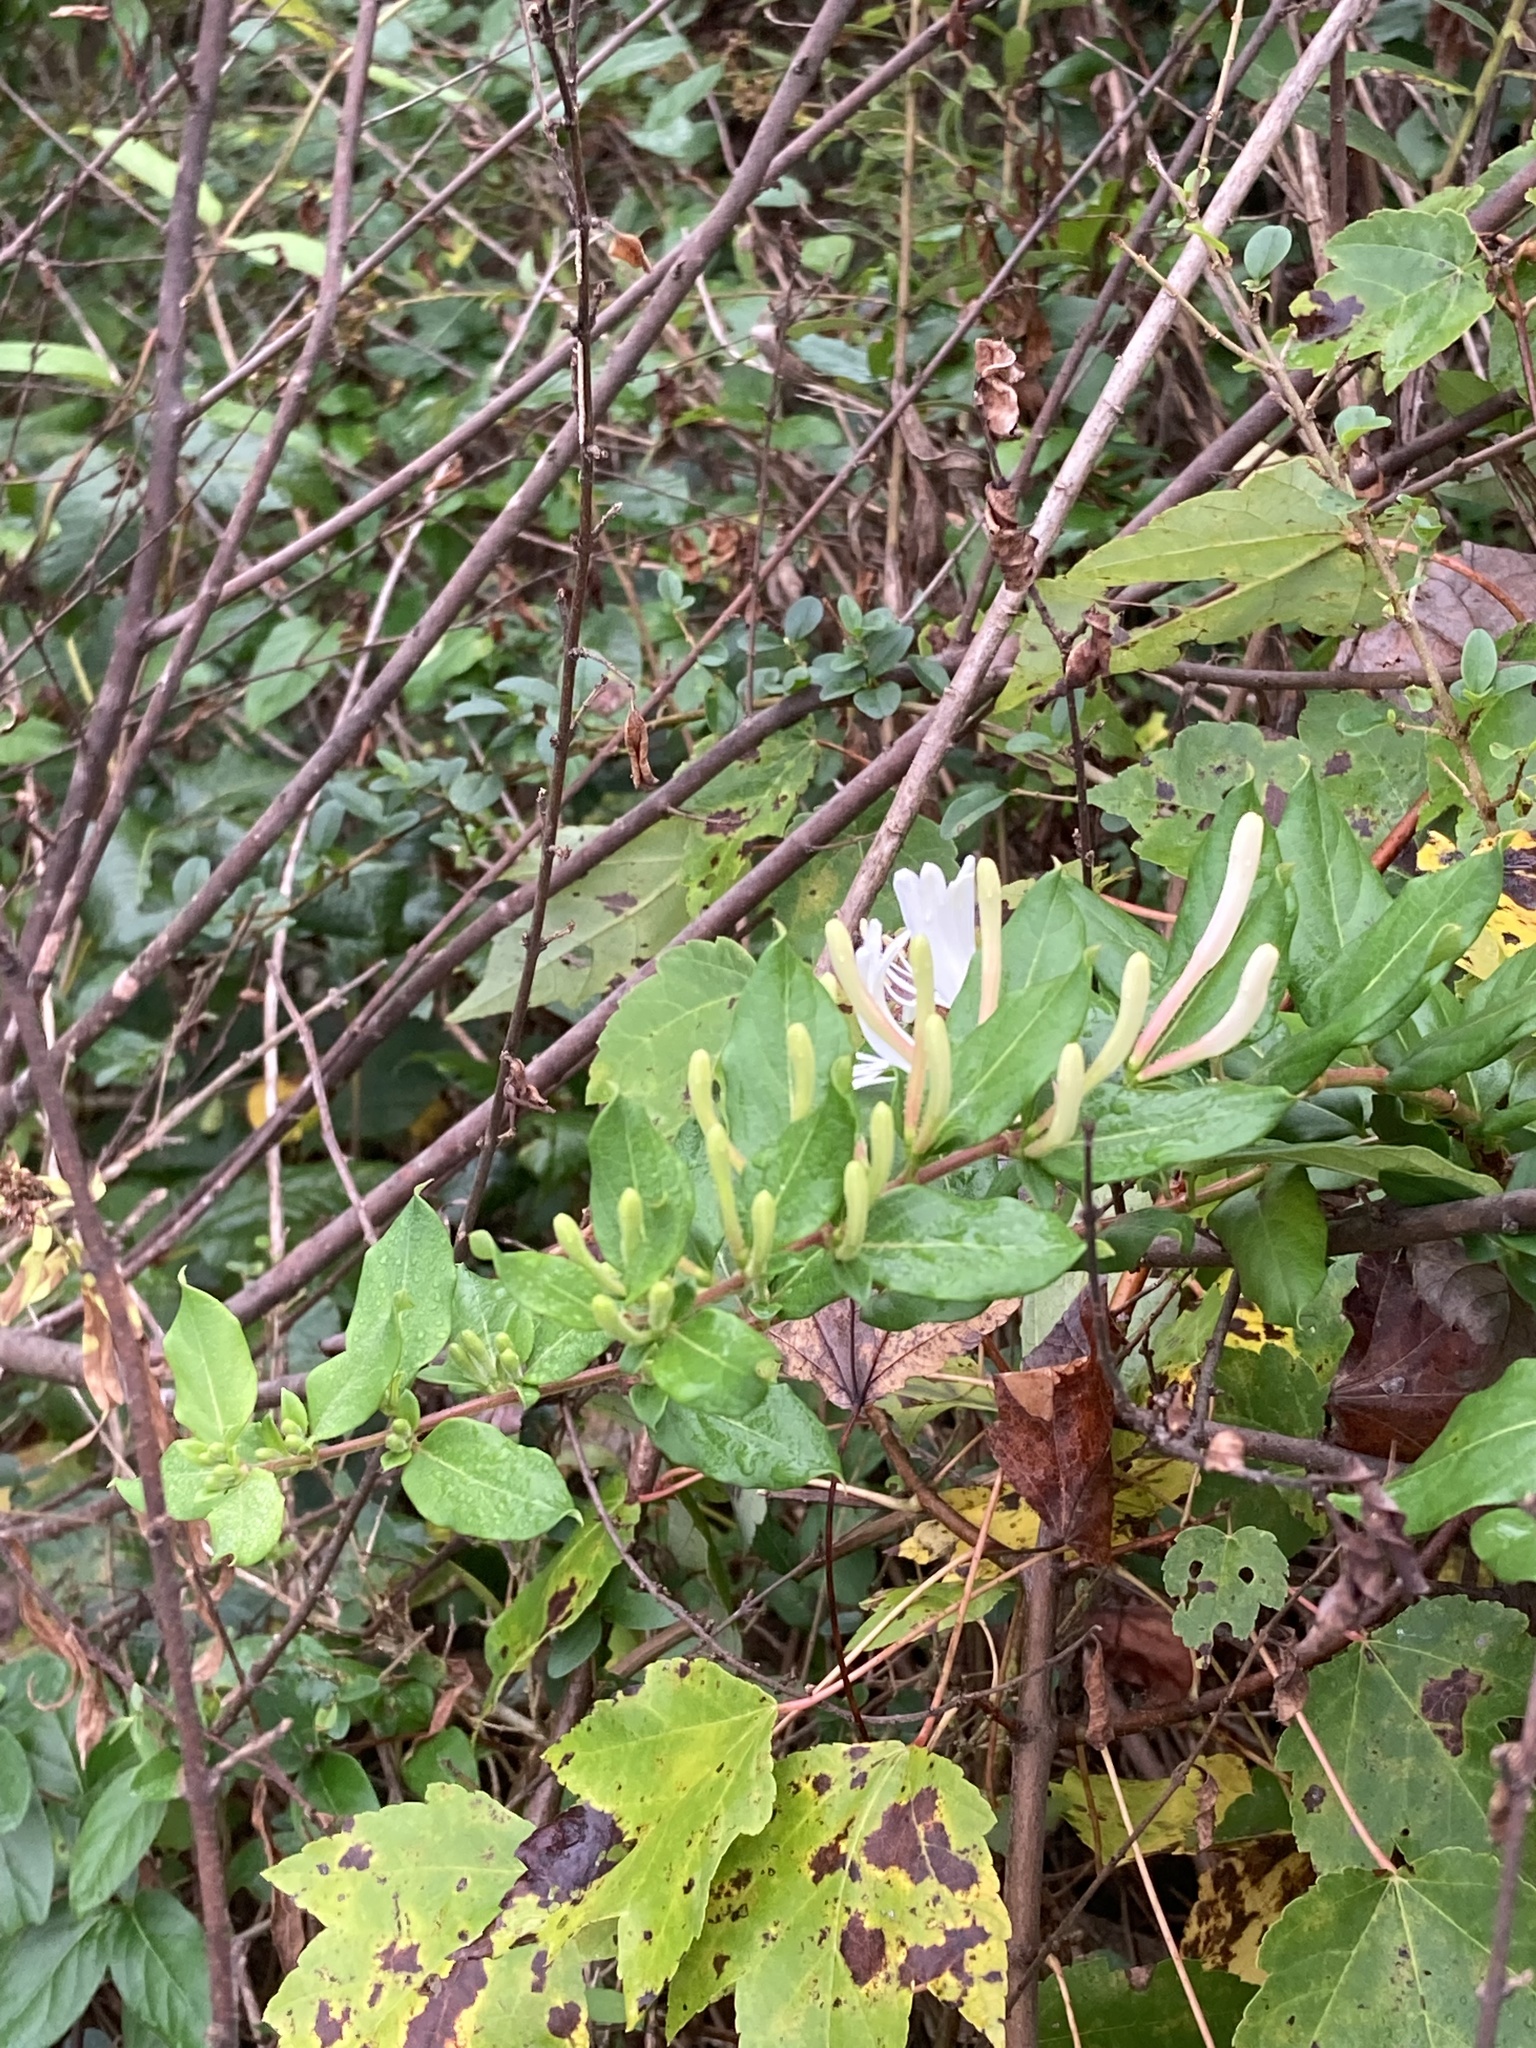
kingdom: Plantae
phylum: Tracheophyta
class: Magnoliopsida
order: Dipsacales
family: Caprifoliaceae
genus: Lonicera
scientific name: Lonicera japonica
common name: Japanese honeysuckle
